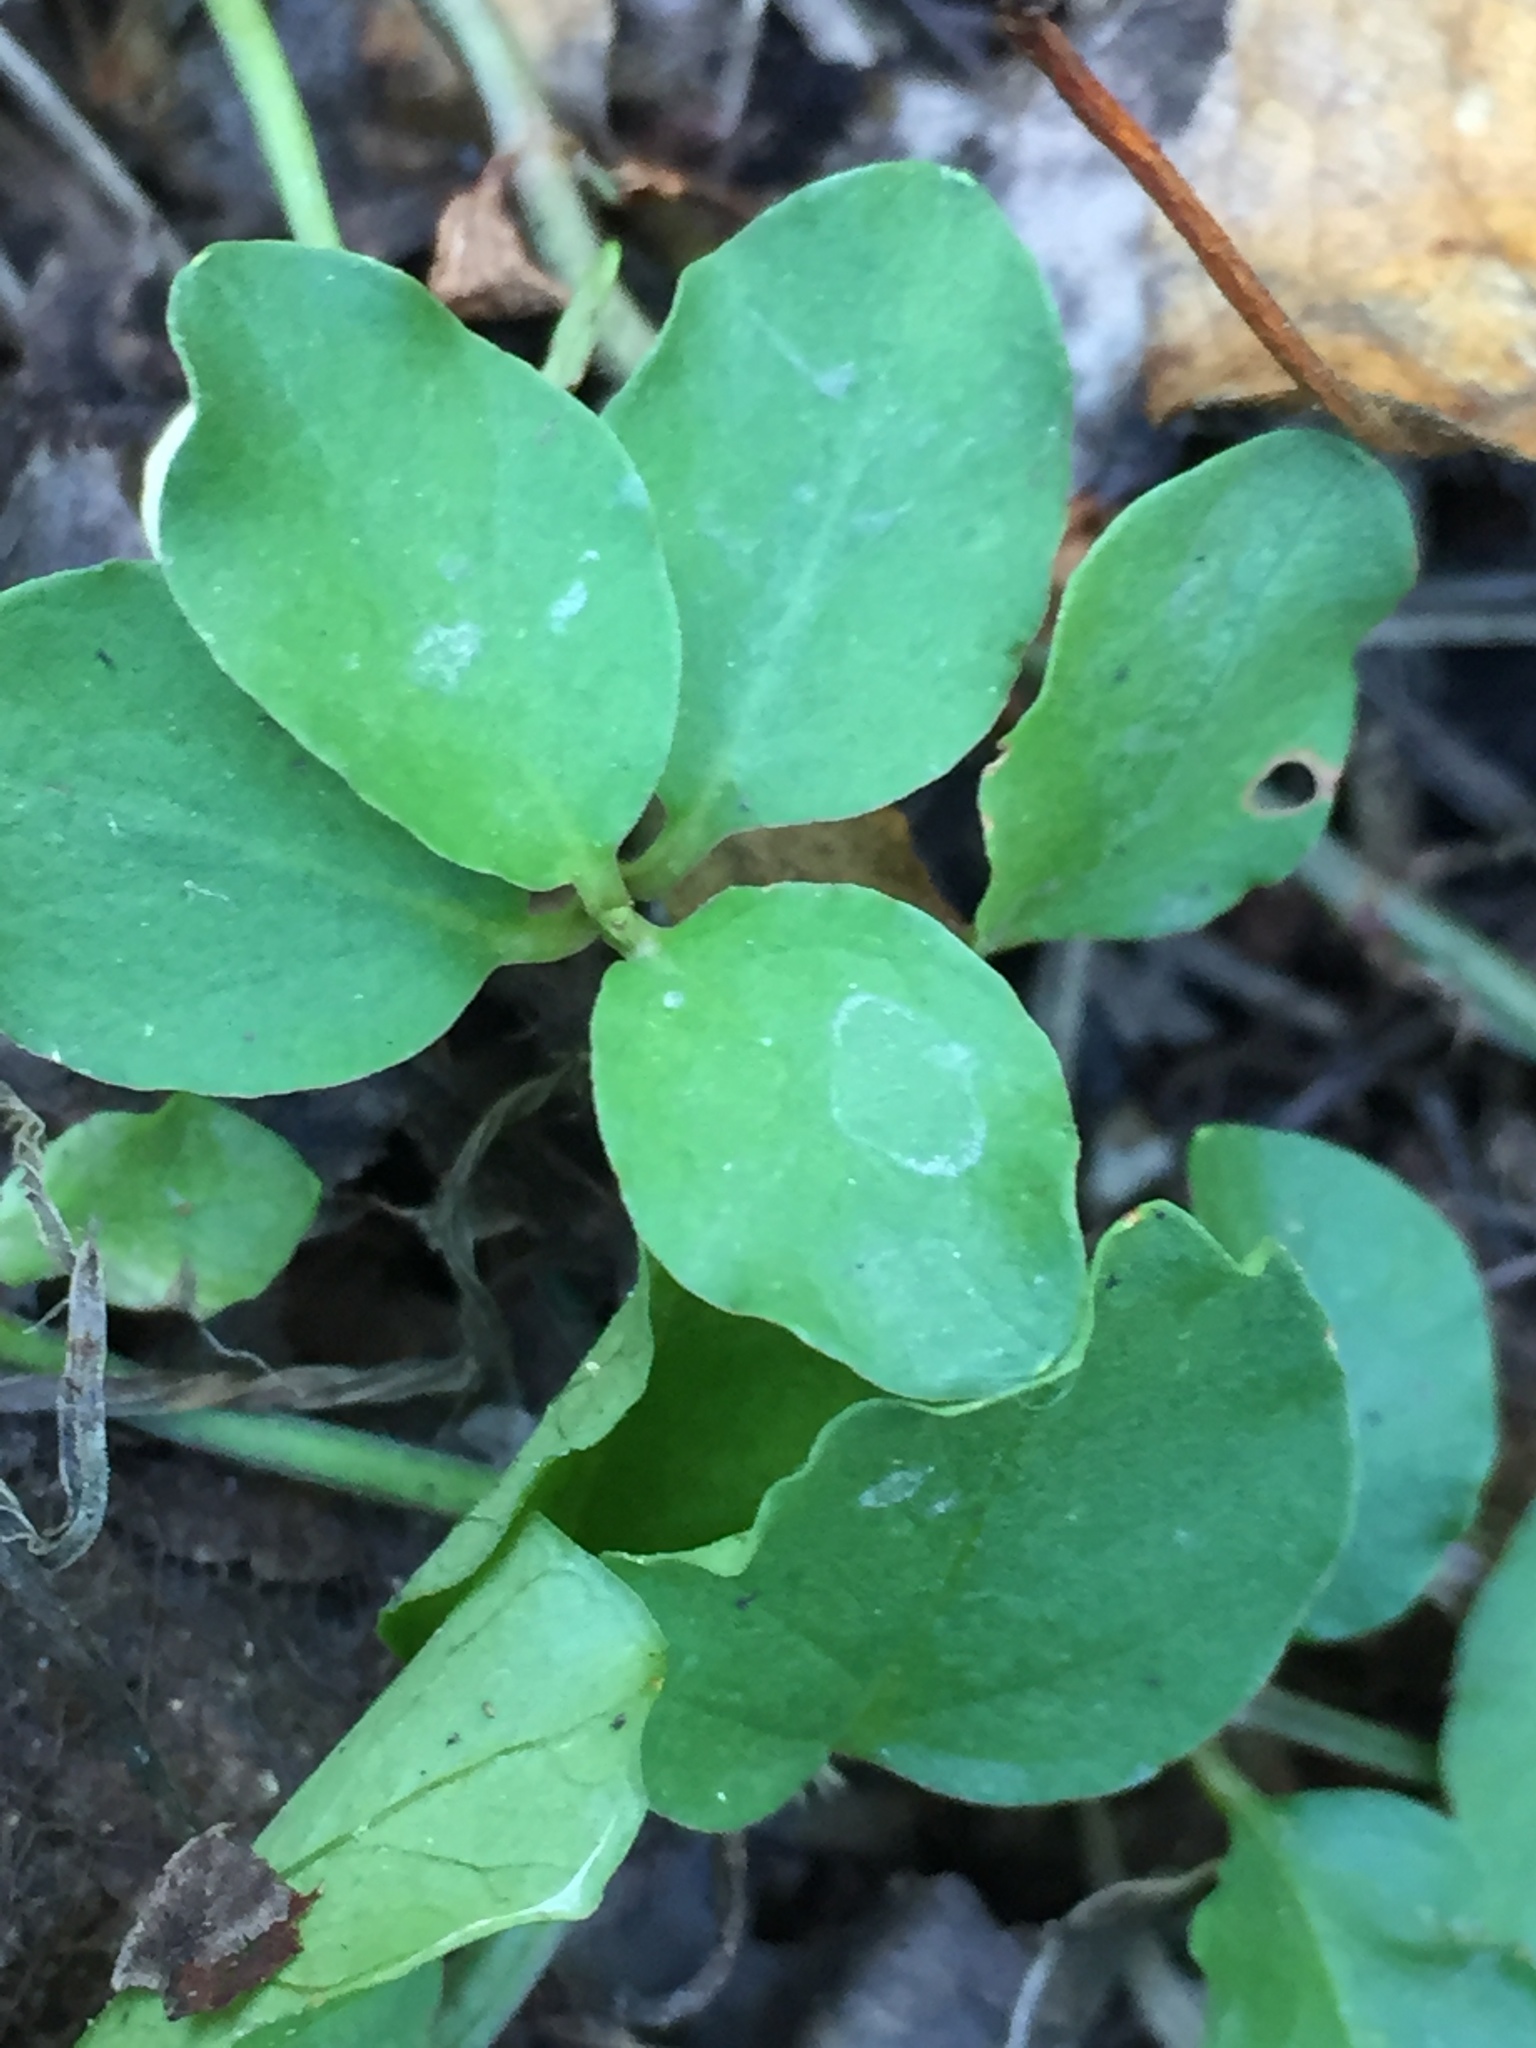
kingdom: Plantae
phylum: Tracheophyta
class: Magnoliopsida
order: Ericales
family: Primulaceae
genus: Lysimachia
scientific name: Lysimachia nummularia
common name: Moneywort
